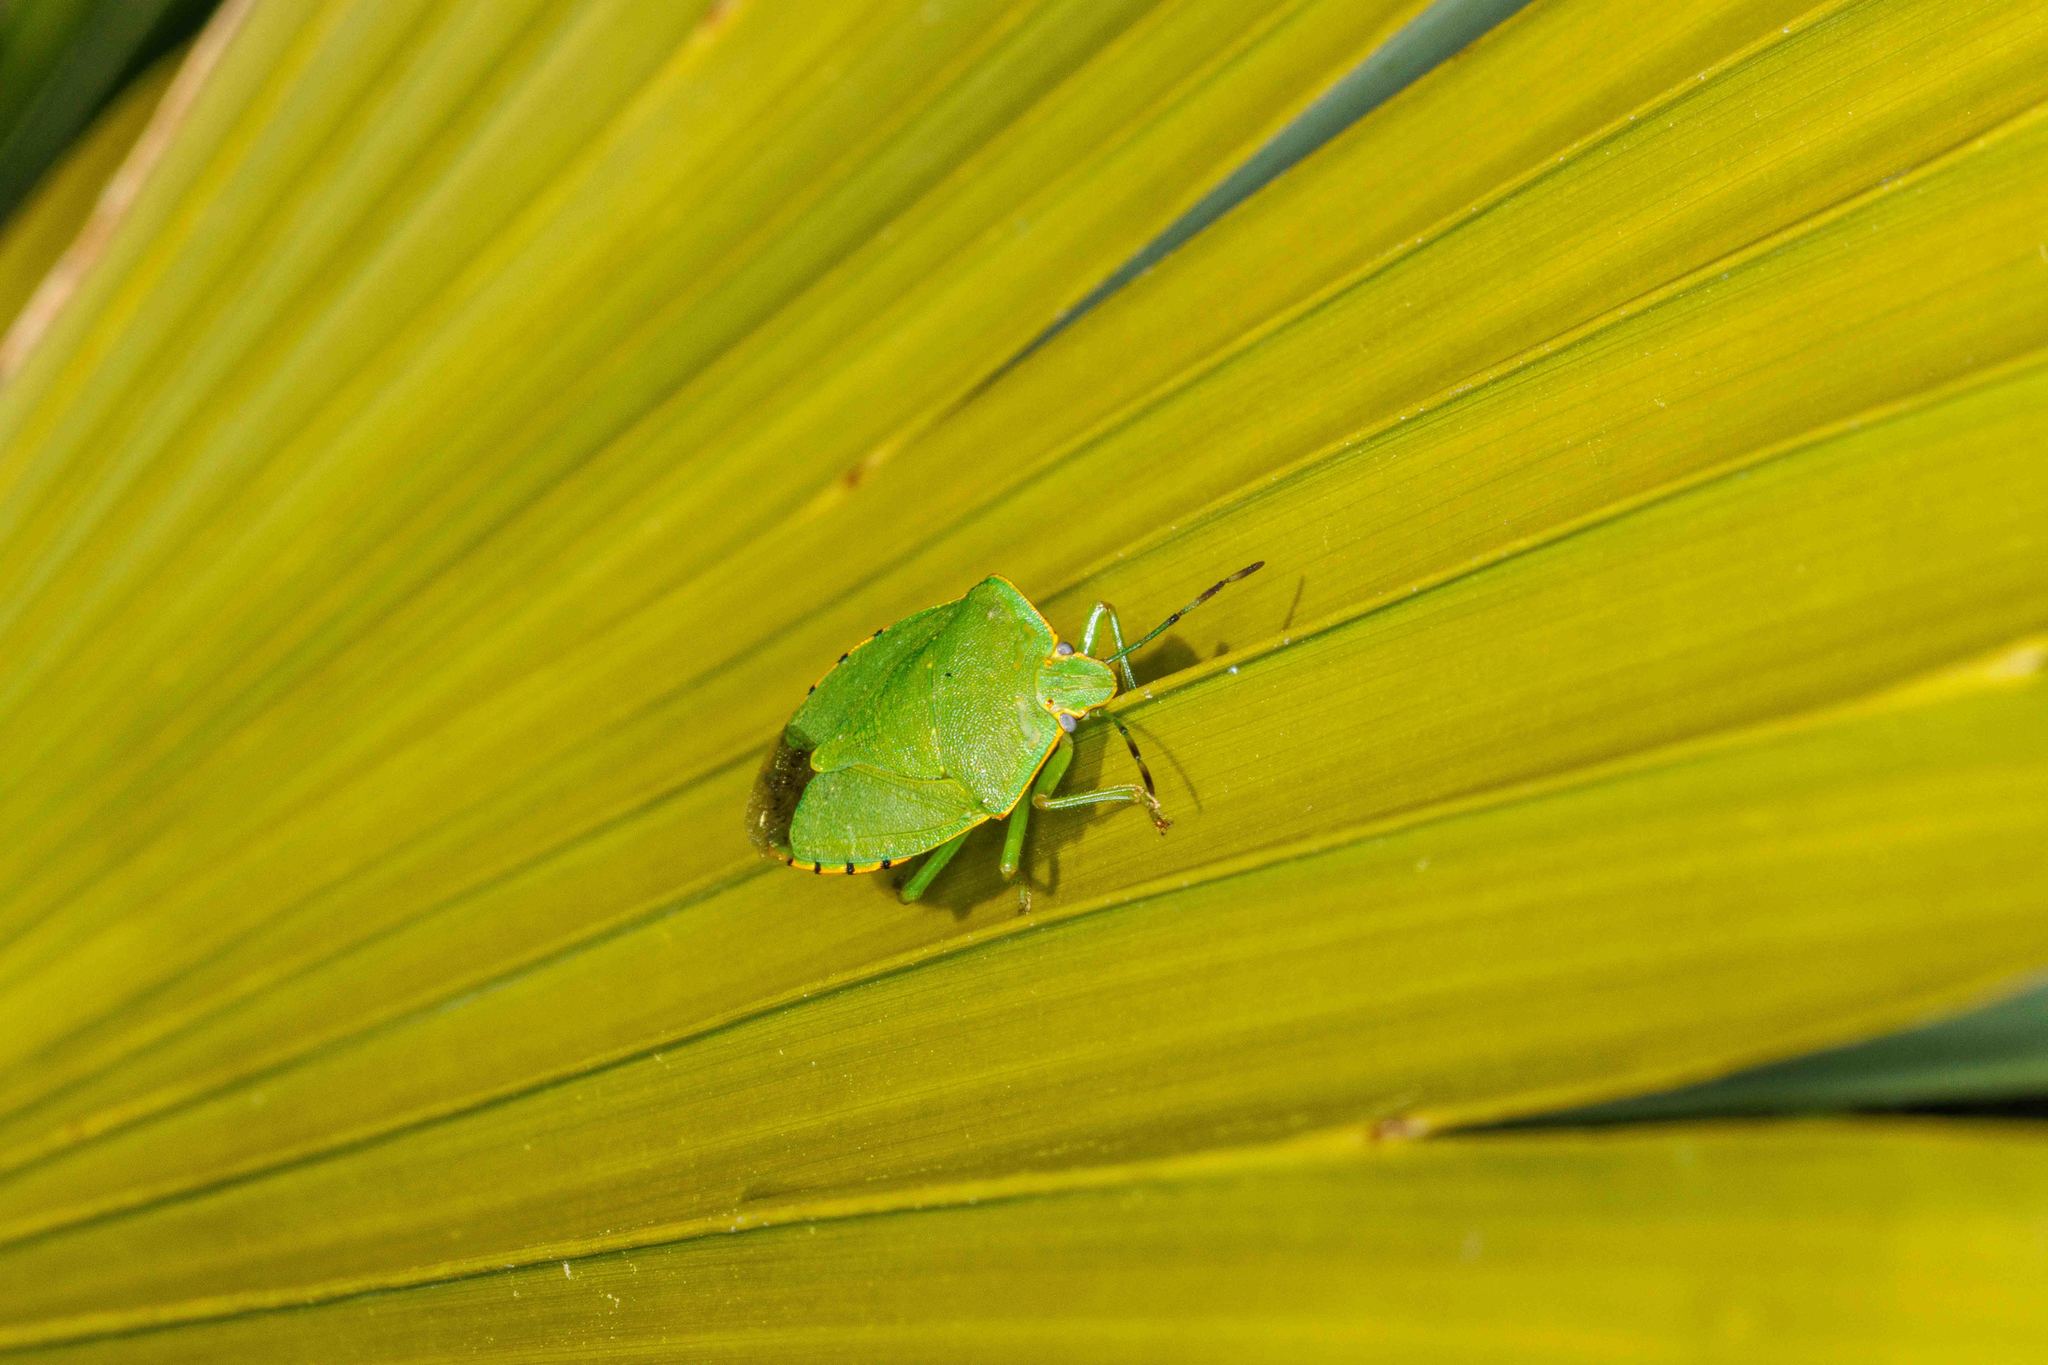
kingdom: Animalia
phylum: Arthropoda
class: Insecta
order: Hemiptera
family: Pentatomidae
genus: Chinavia
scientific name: Chinavia hilaris
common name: Green stink bug
